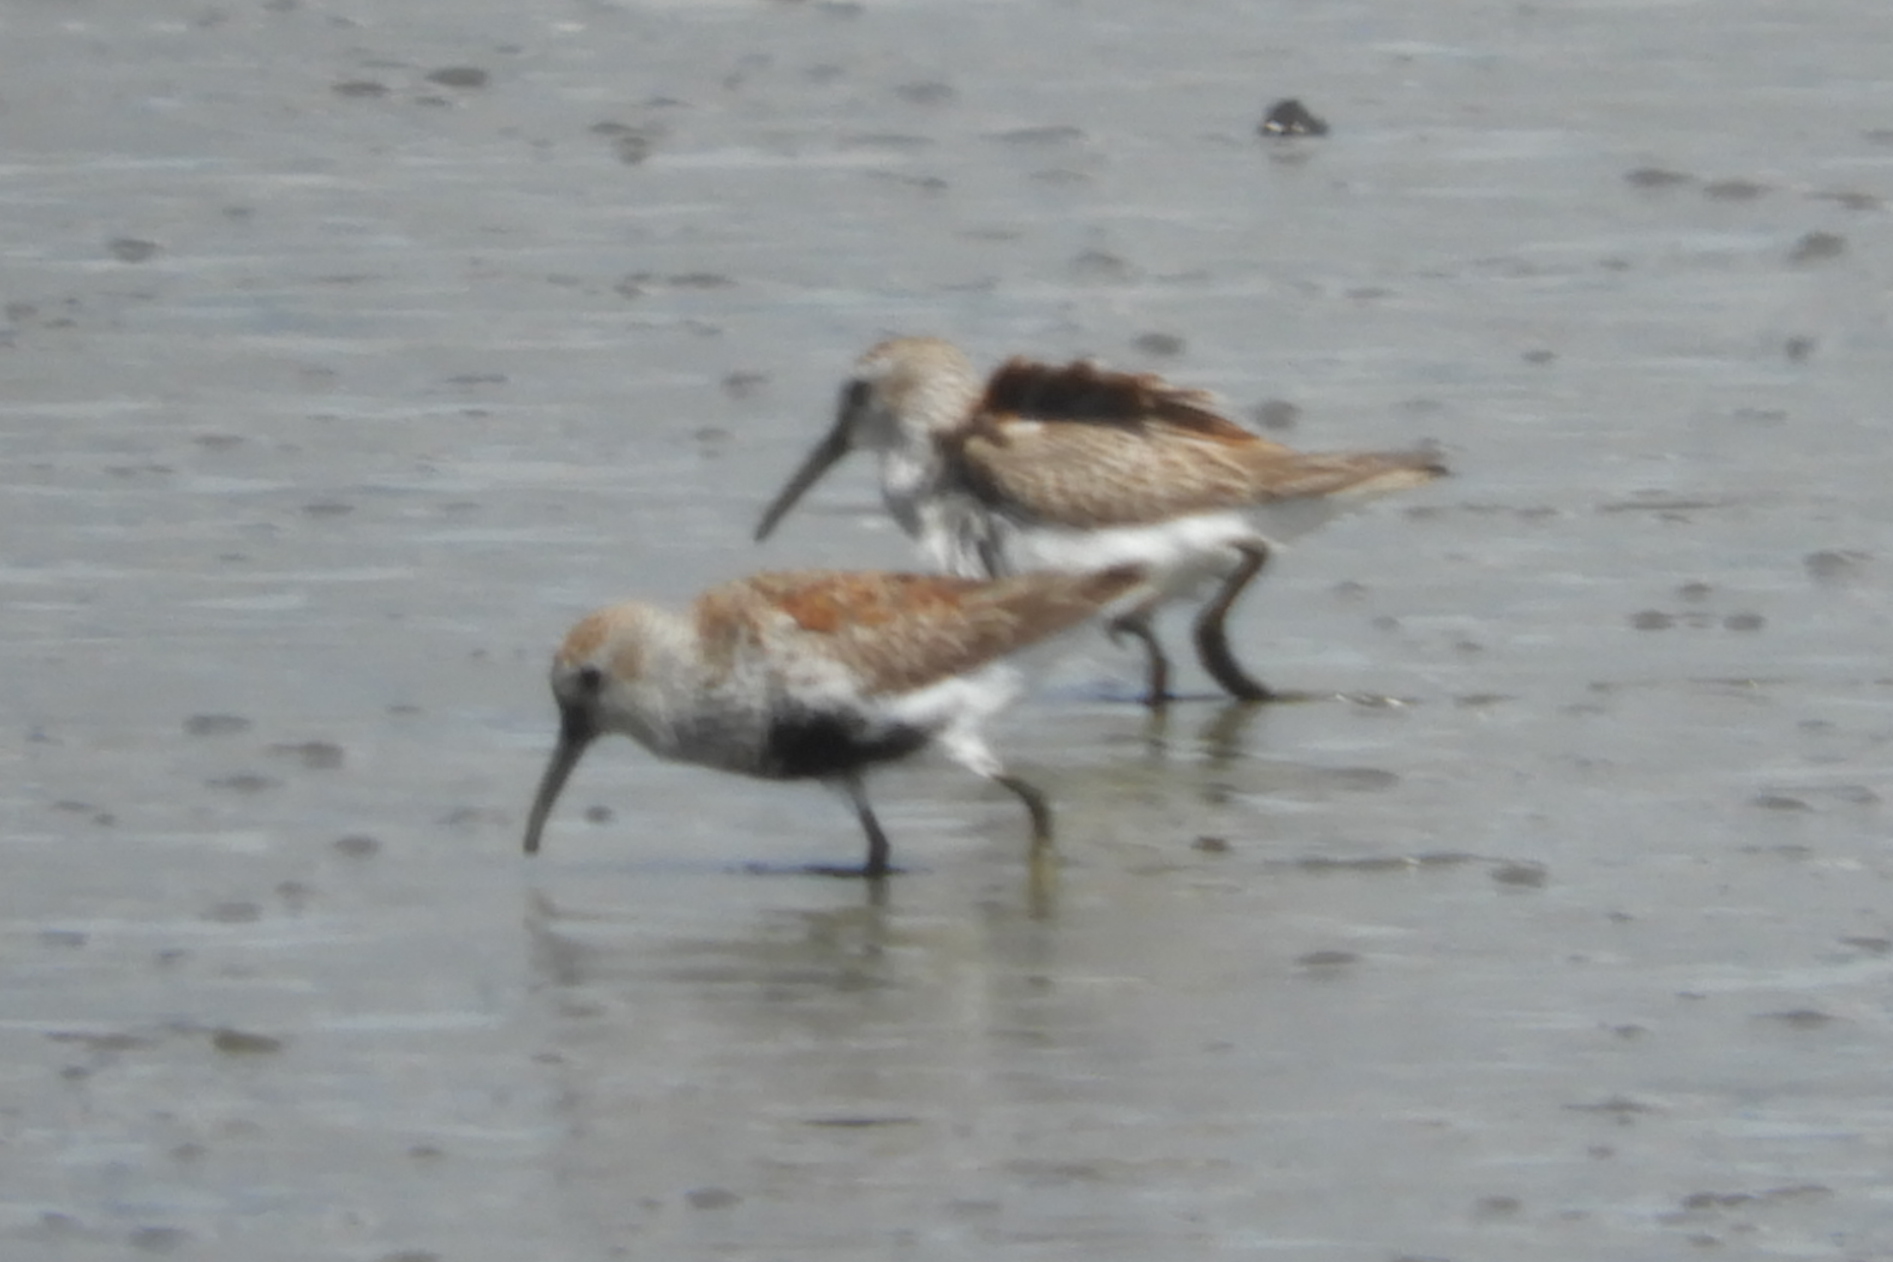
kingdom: Animalia
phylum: Chordata
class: Aves
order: Charadriiformes
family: Scolopacidae
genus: Calidris
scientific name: Calidris alpina
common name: Dunlin
